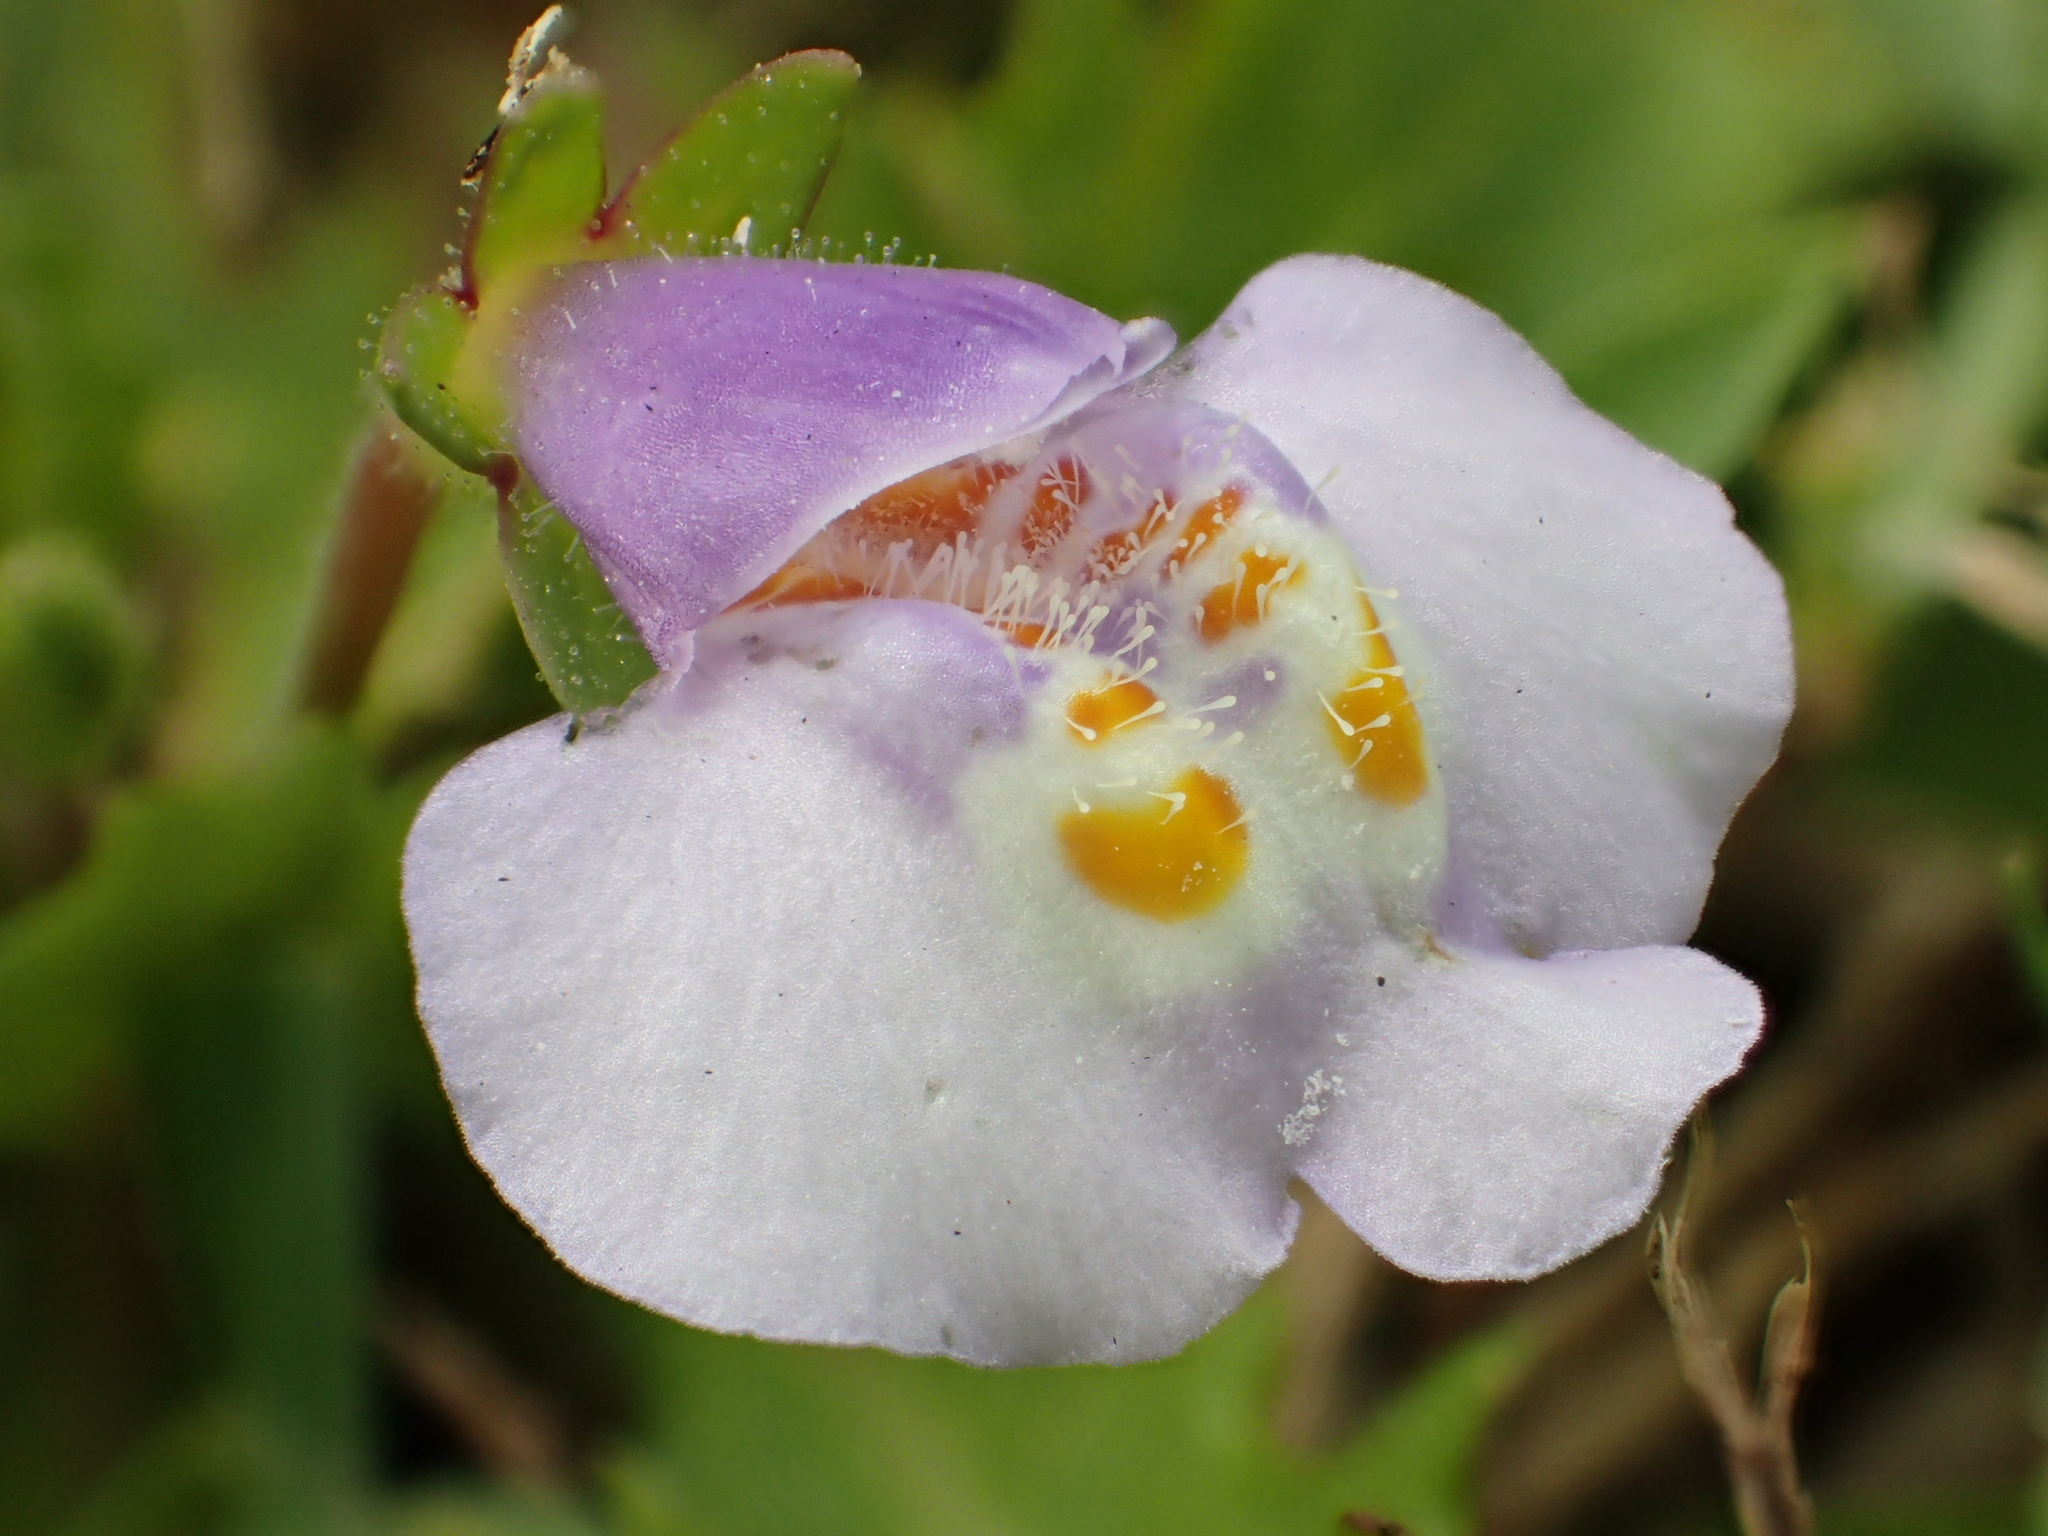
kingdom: Plantae
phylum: Tracheophyta
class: Magnoliopsida
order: Lamiales
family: Mazaceae
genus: Mazus
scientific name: Mazus pumilus
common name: Japanese mazus
